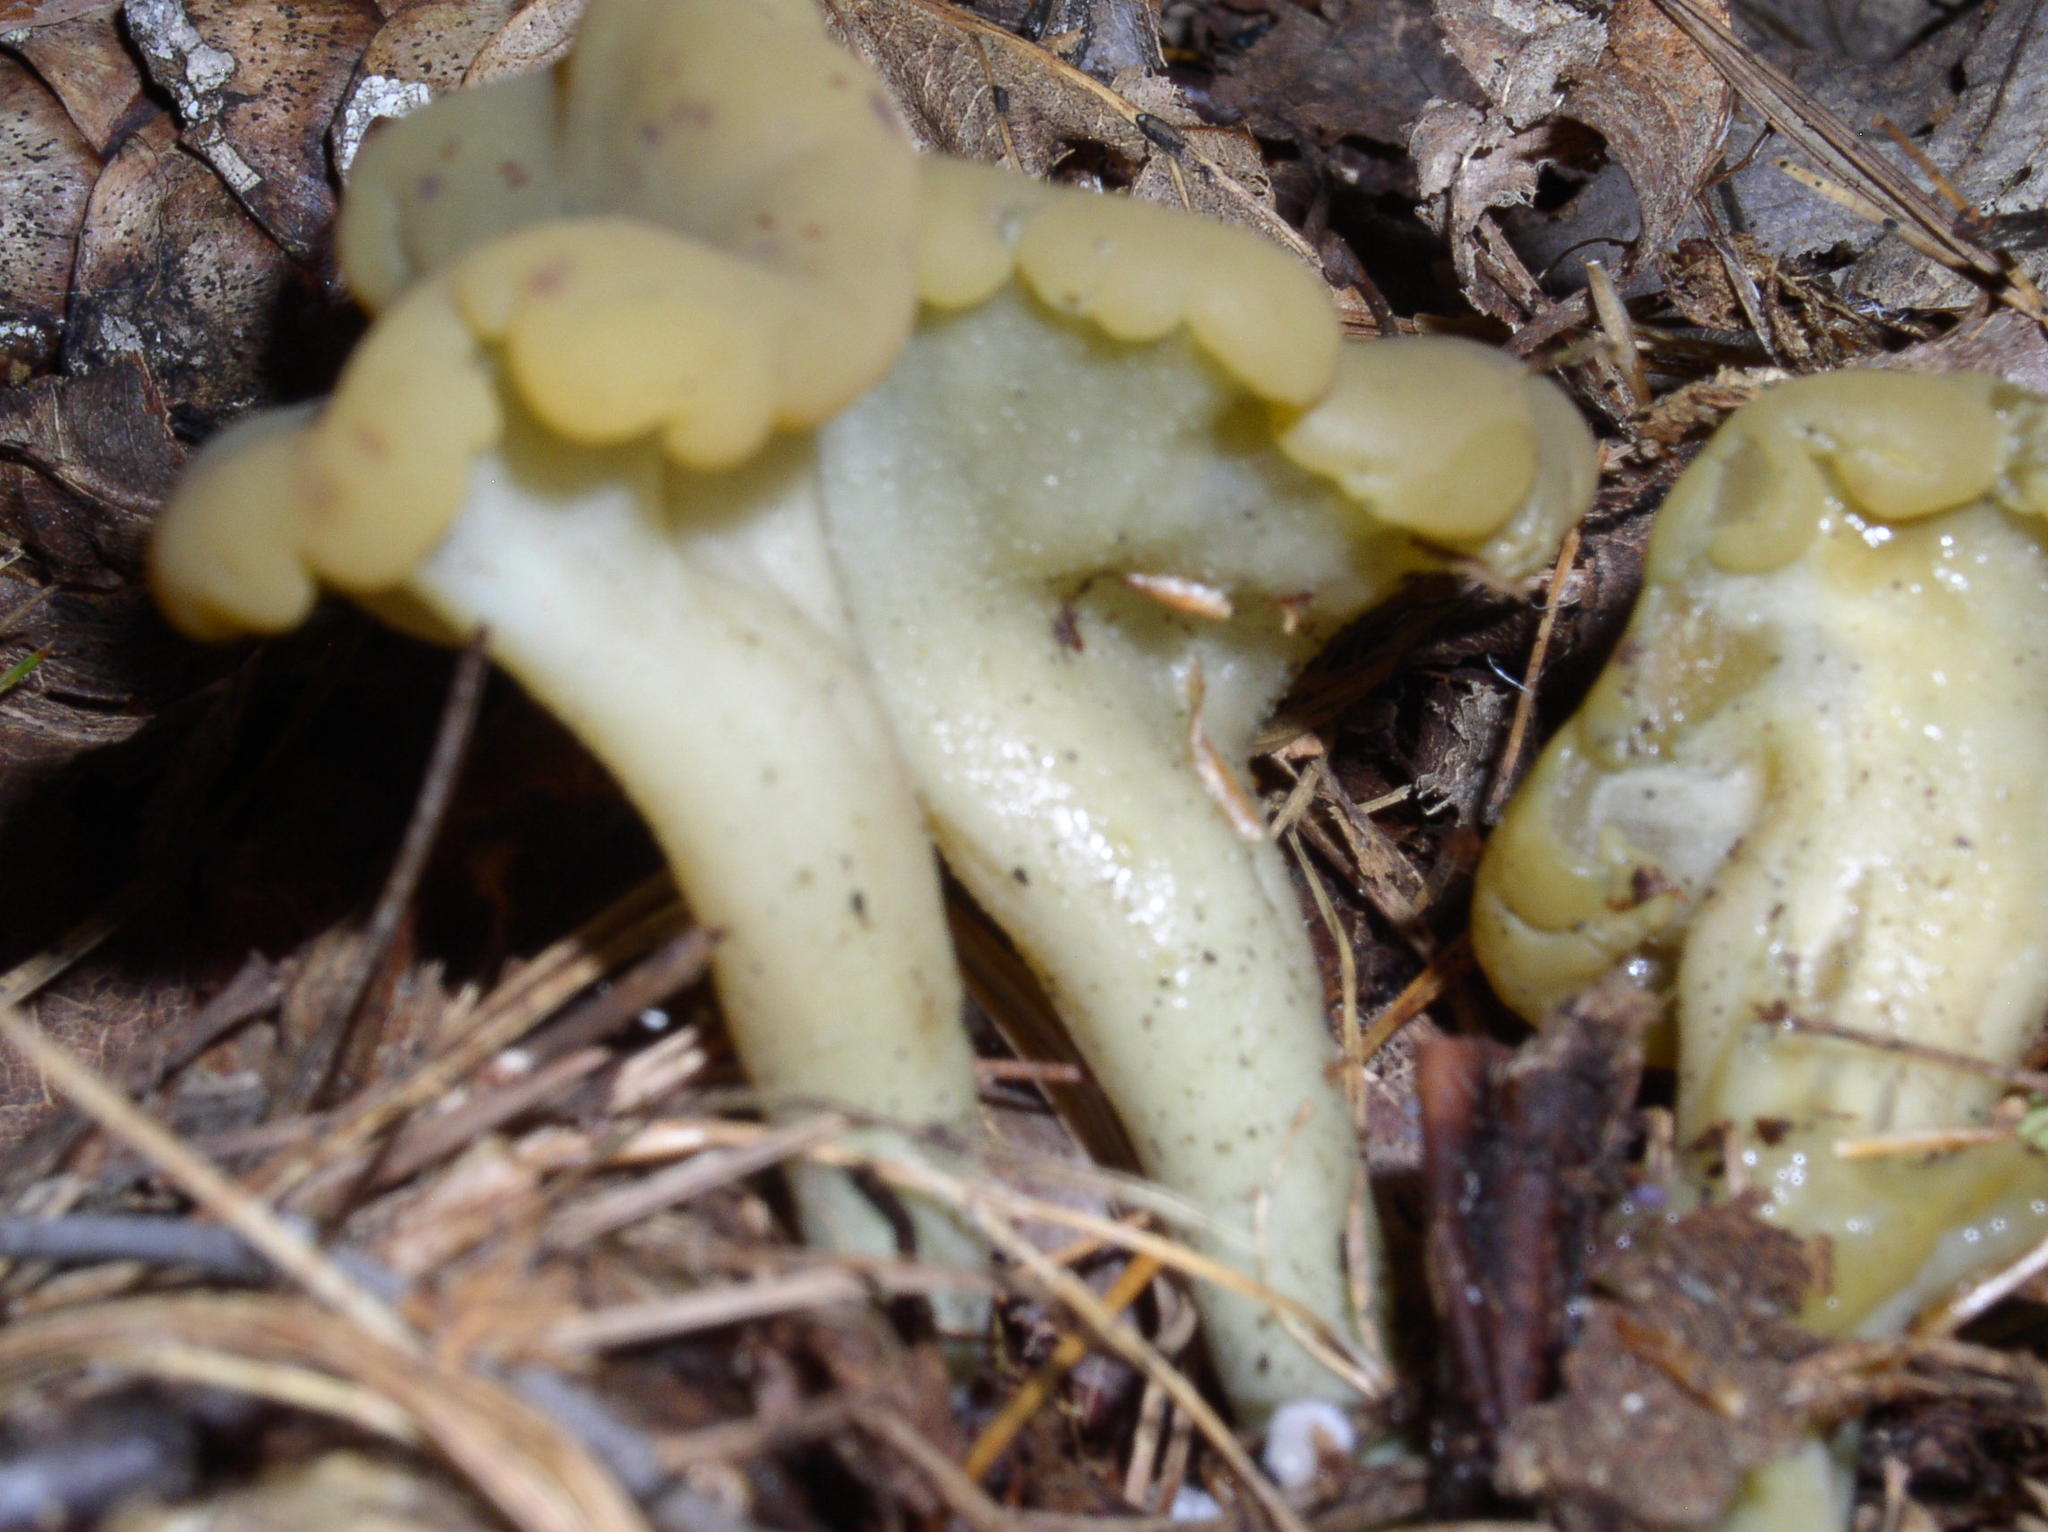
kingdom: Fungi
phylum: Ascomycota
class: Leotiomycetes
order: Leotiales
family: Leotiaceae
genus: Leotia
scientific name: Leotia lubrica
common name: Jellybaby
